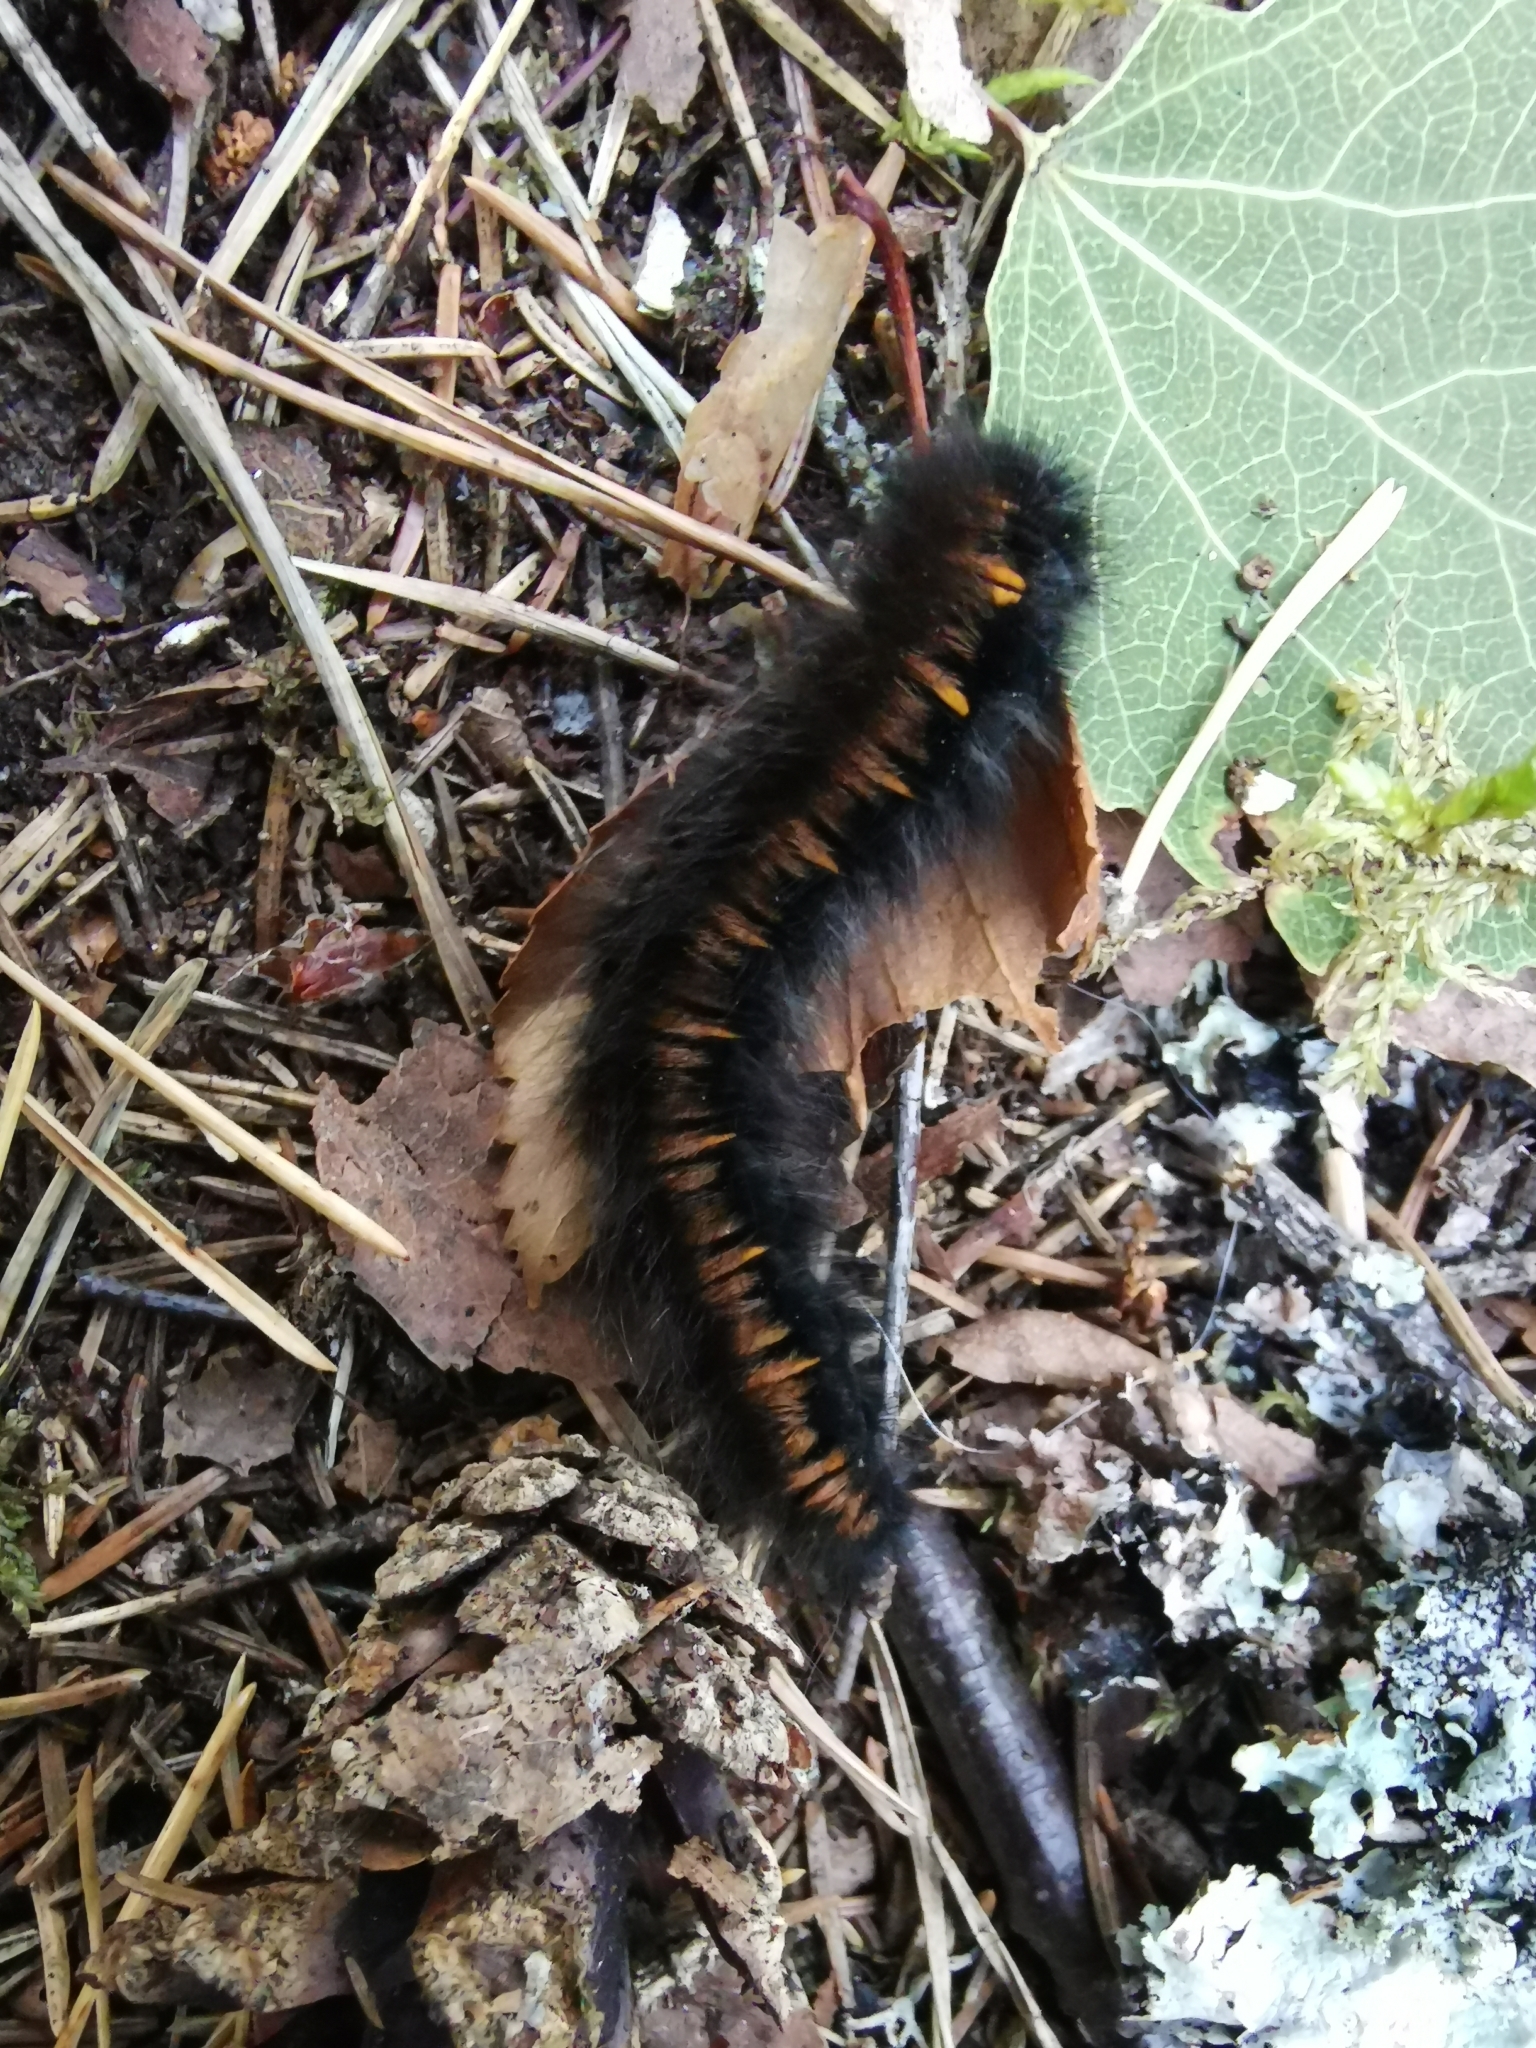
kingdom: Animalia
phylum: Arthropoda
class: Insecta
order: Lepidoptera
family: Lasiocampidae
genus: Macrothylacia
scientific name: Macrothylacia rubi
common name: Fox moth
